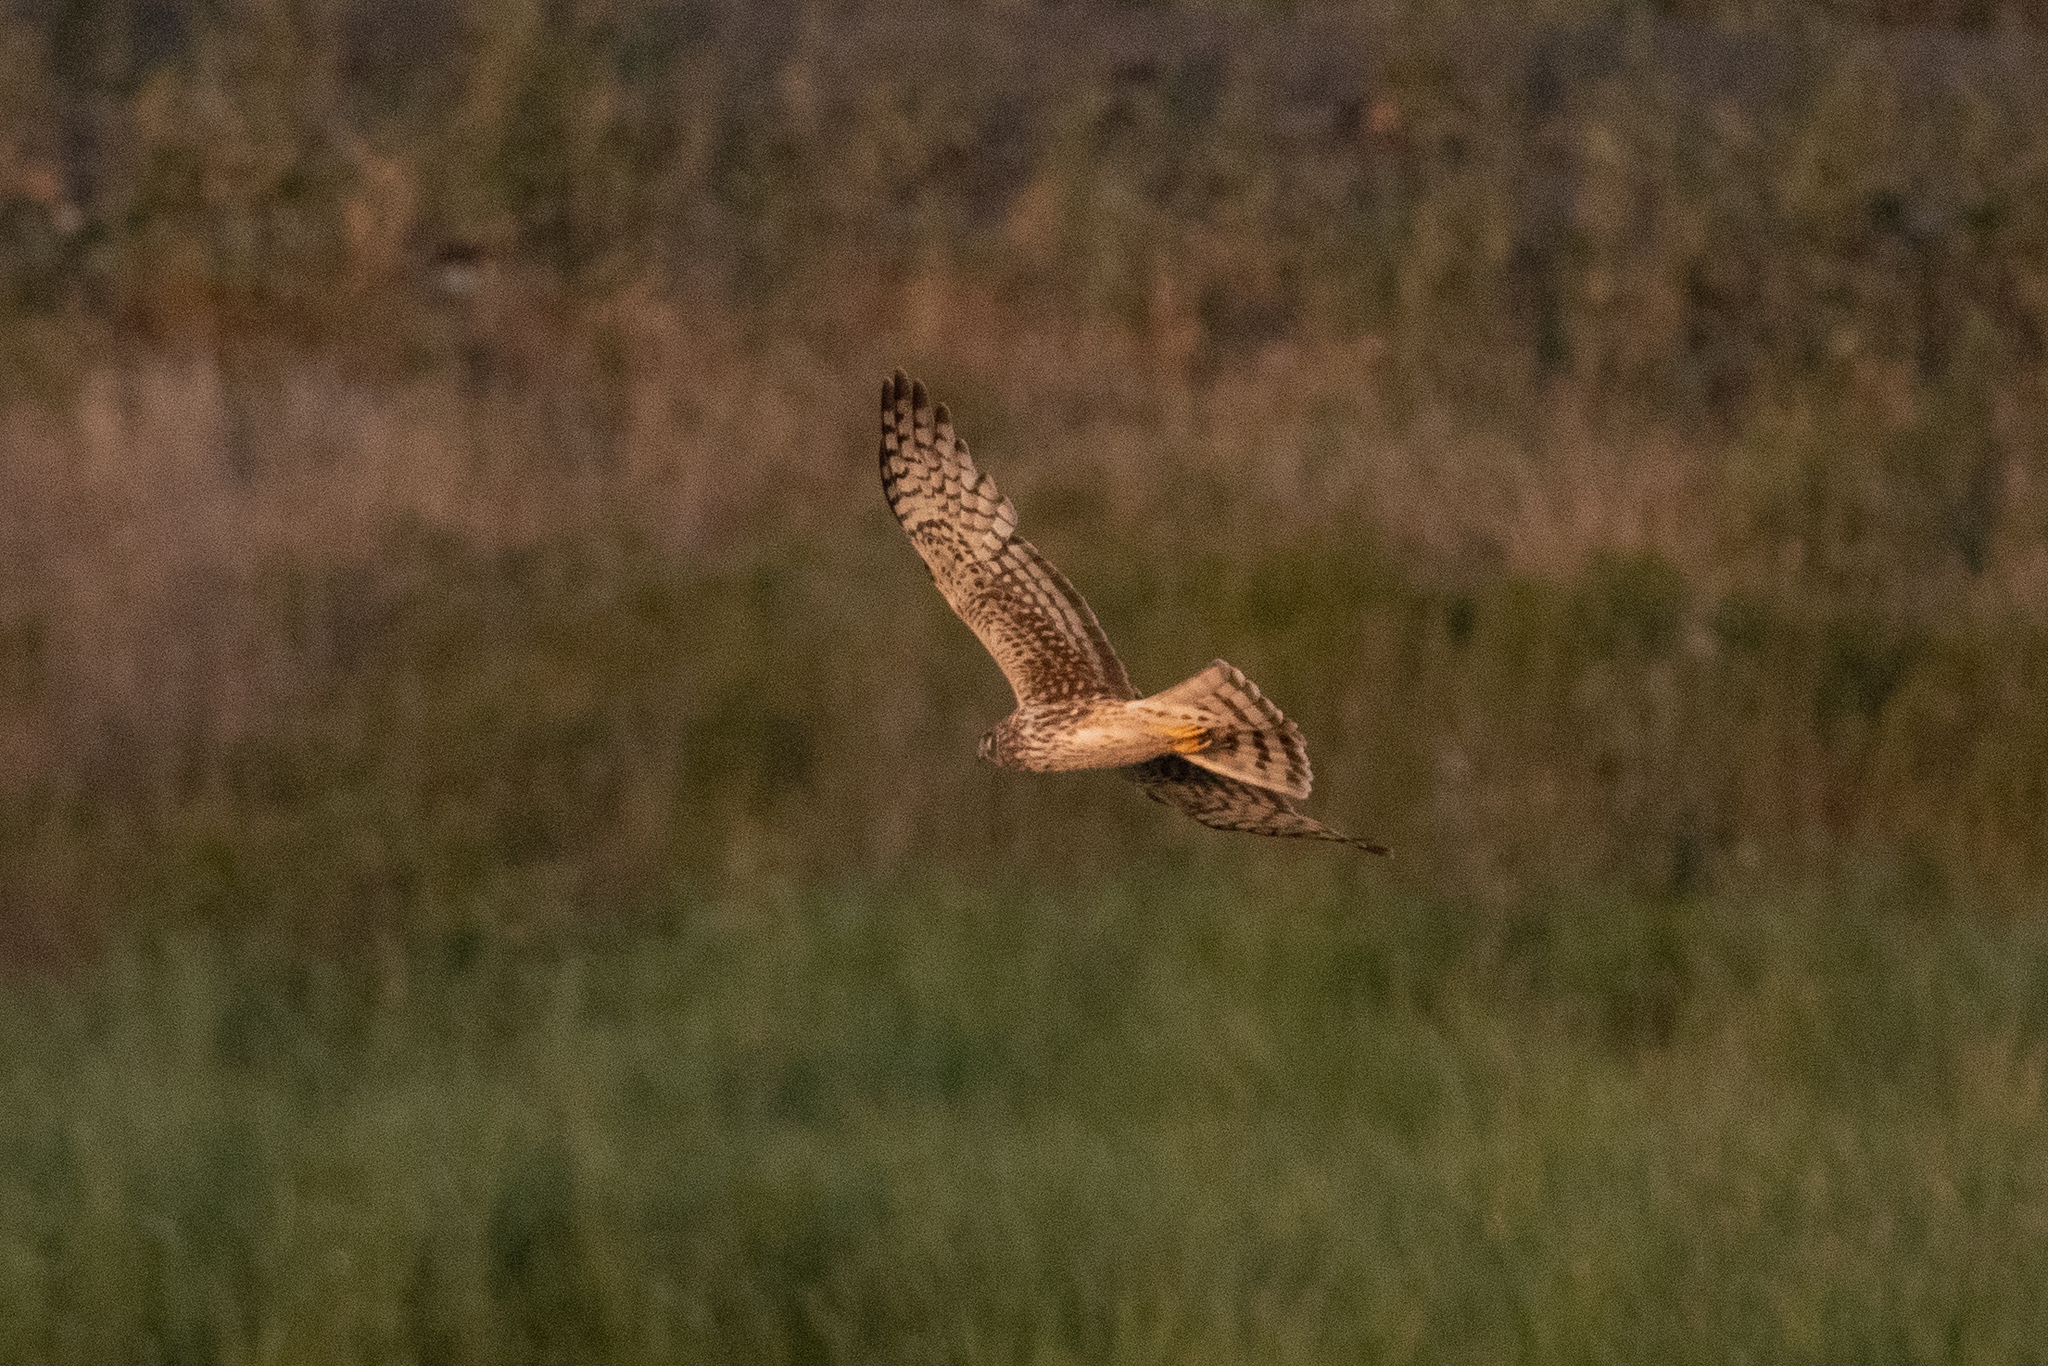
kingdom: Animalia
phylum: Chordata
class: Aves
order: Accipitriformes
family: Accipitridae
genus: Circus
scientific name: Circus cyaneus
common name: Hen harrier
